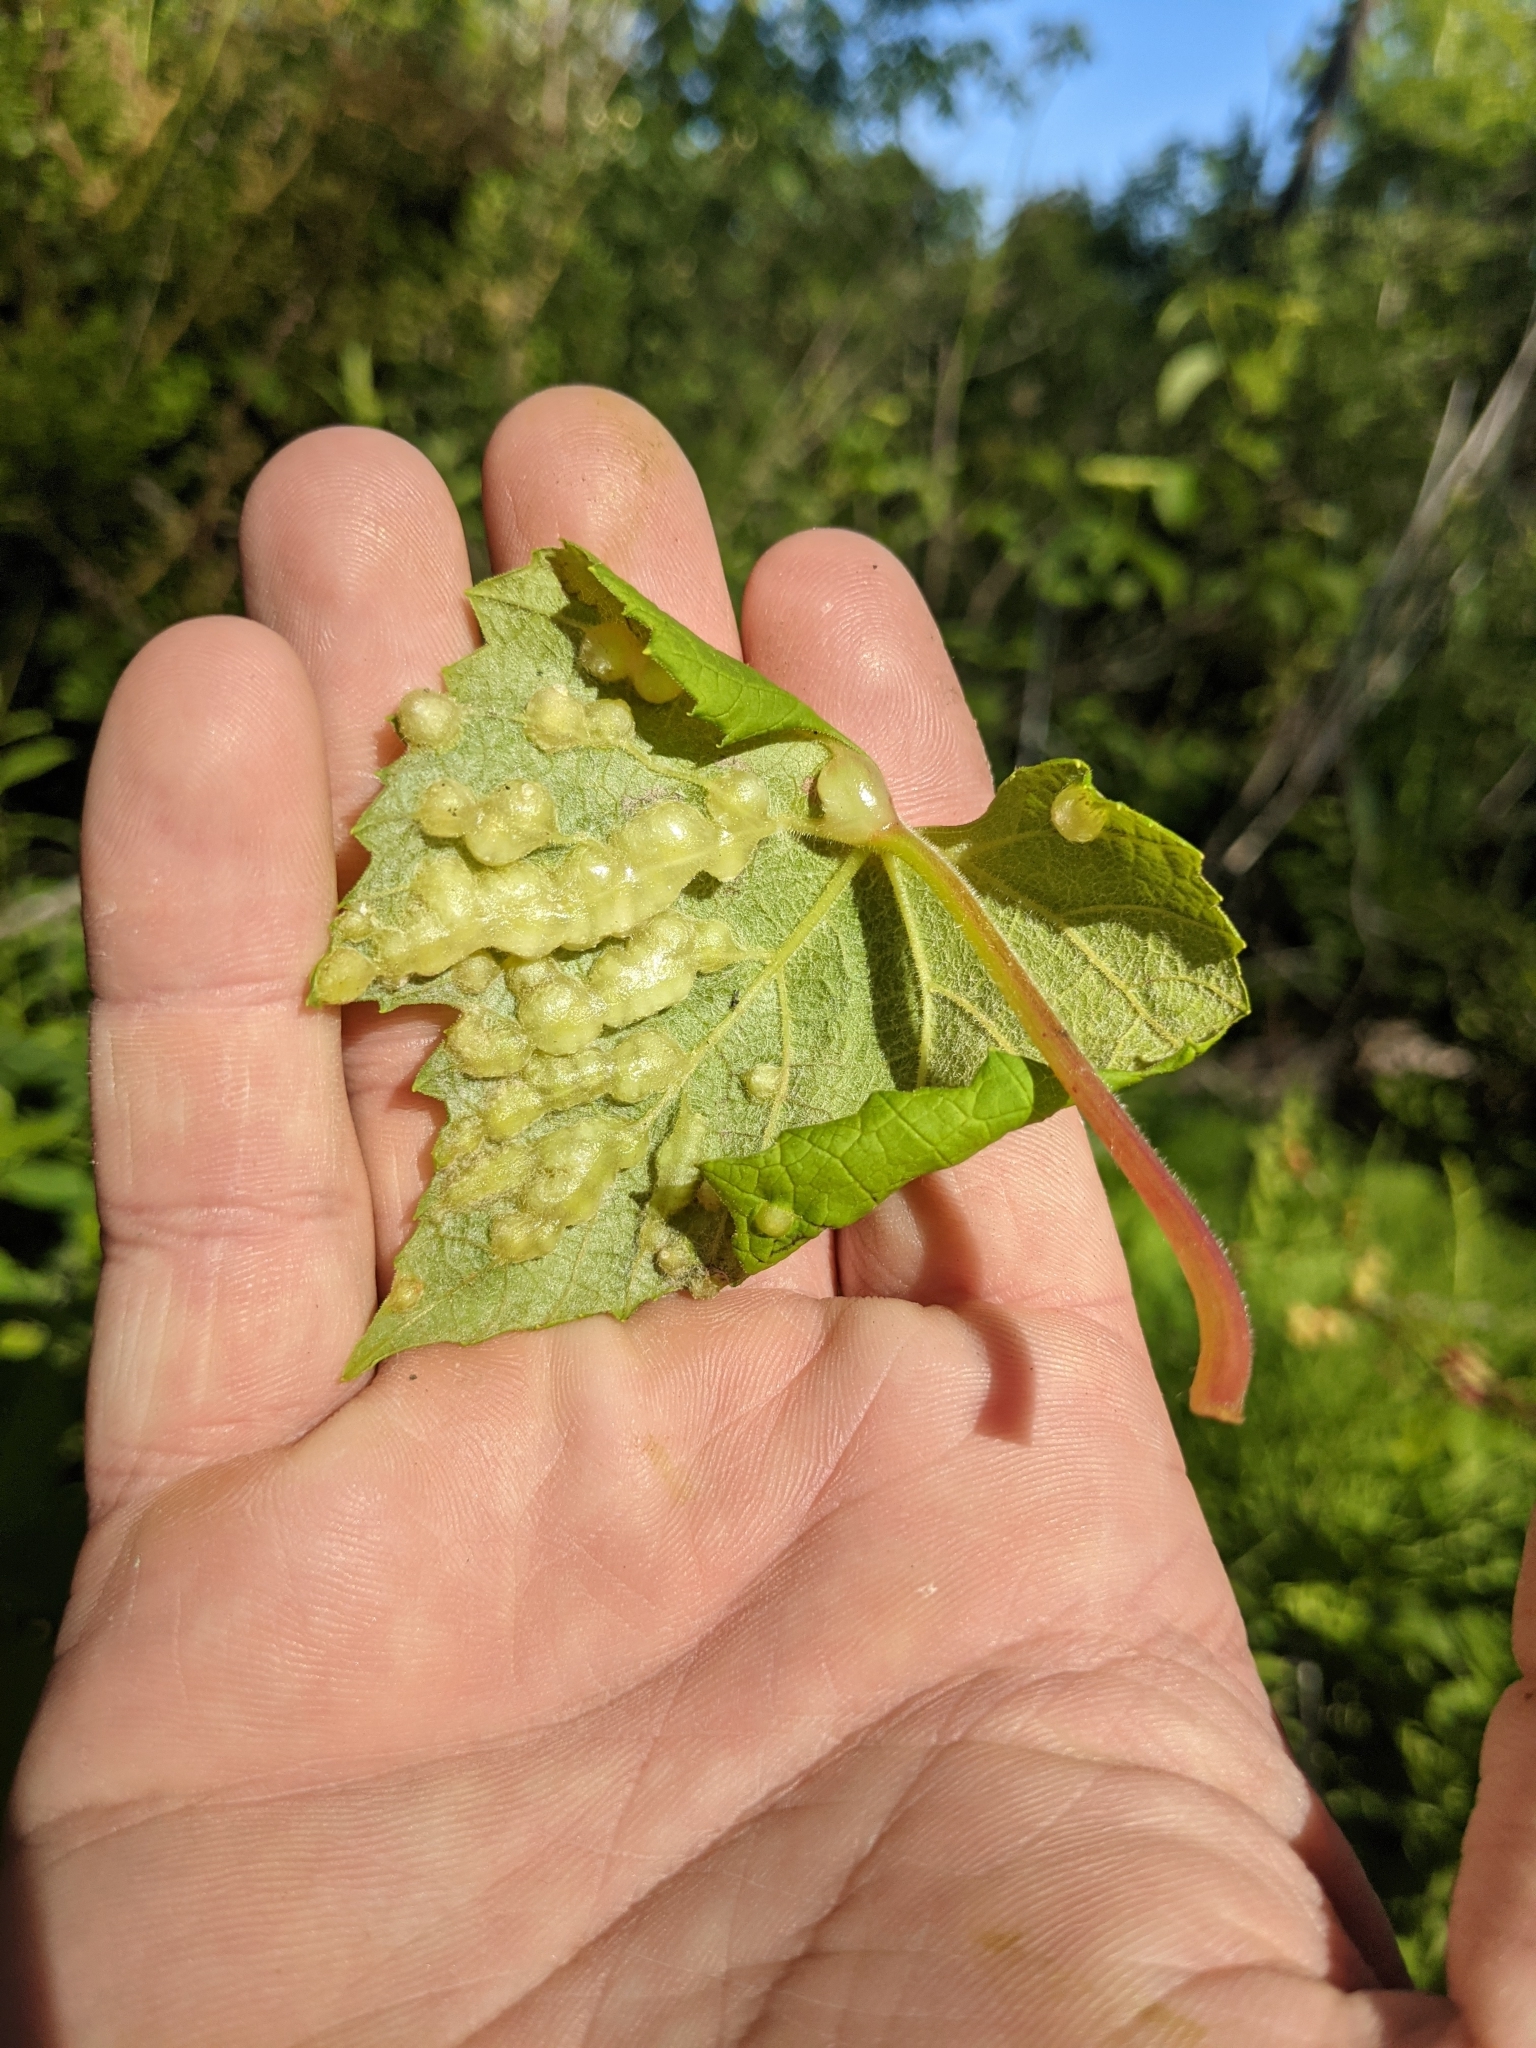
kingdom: Animalia
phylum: Arthropoda
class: Insecta
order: Diptera
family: Cecidomyiidae
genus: Vitisiella
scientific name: Vitisiella brevicauda
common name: Grape tumid gallmaker midge
